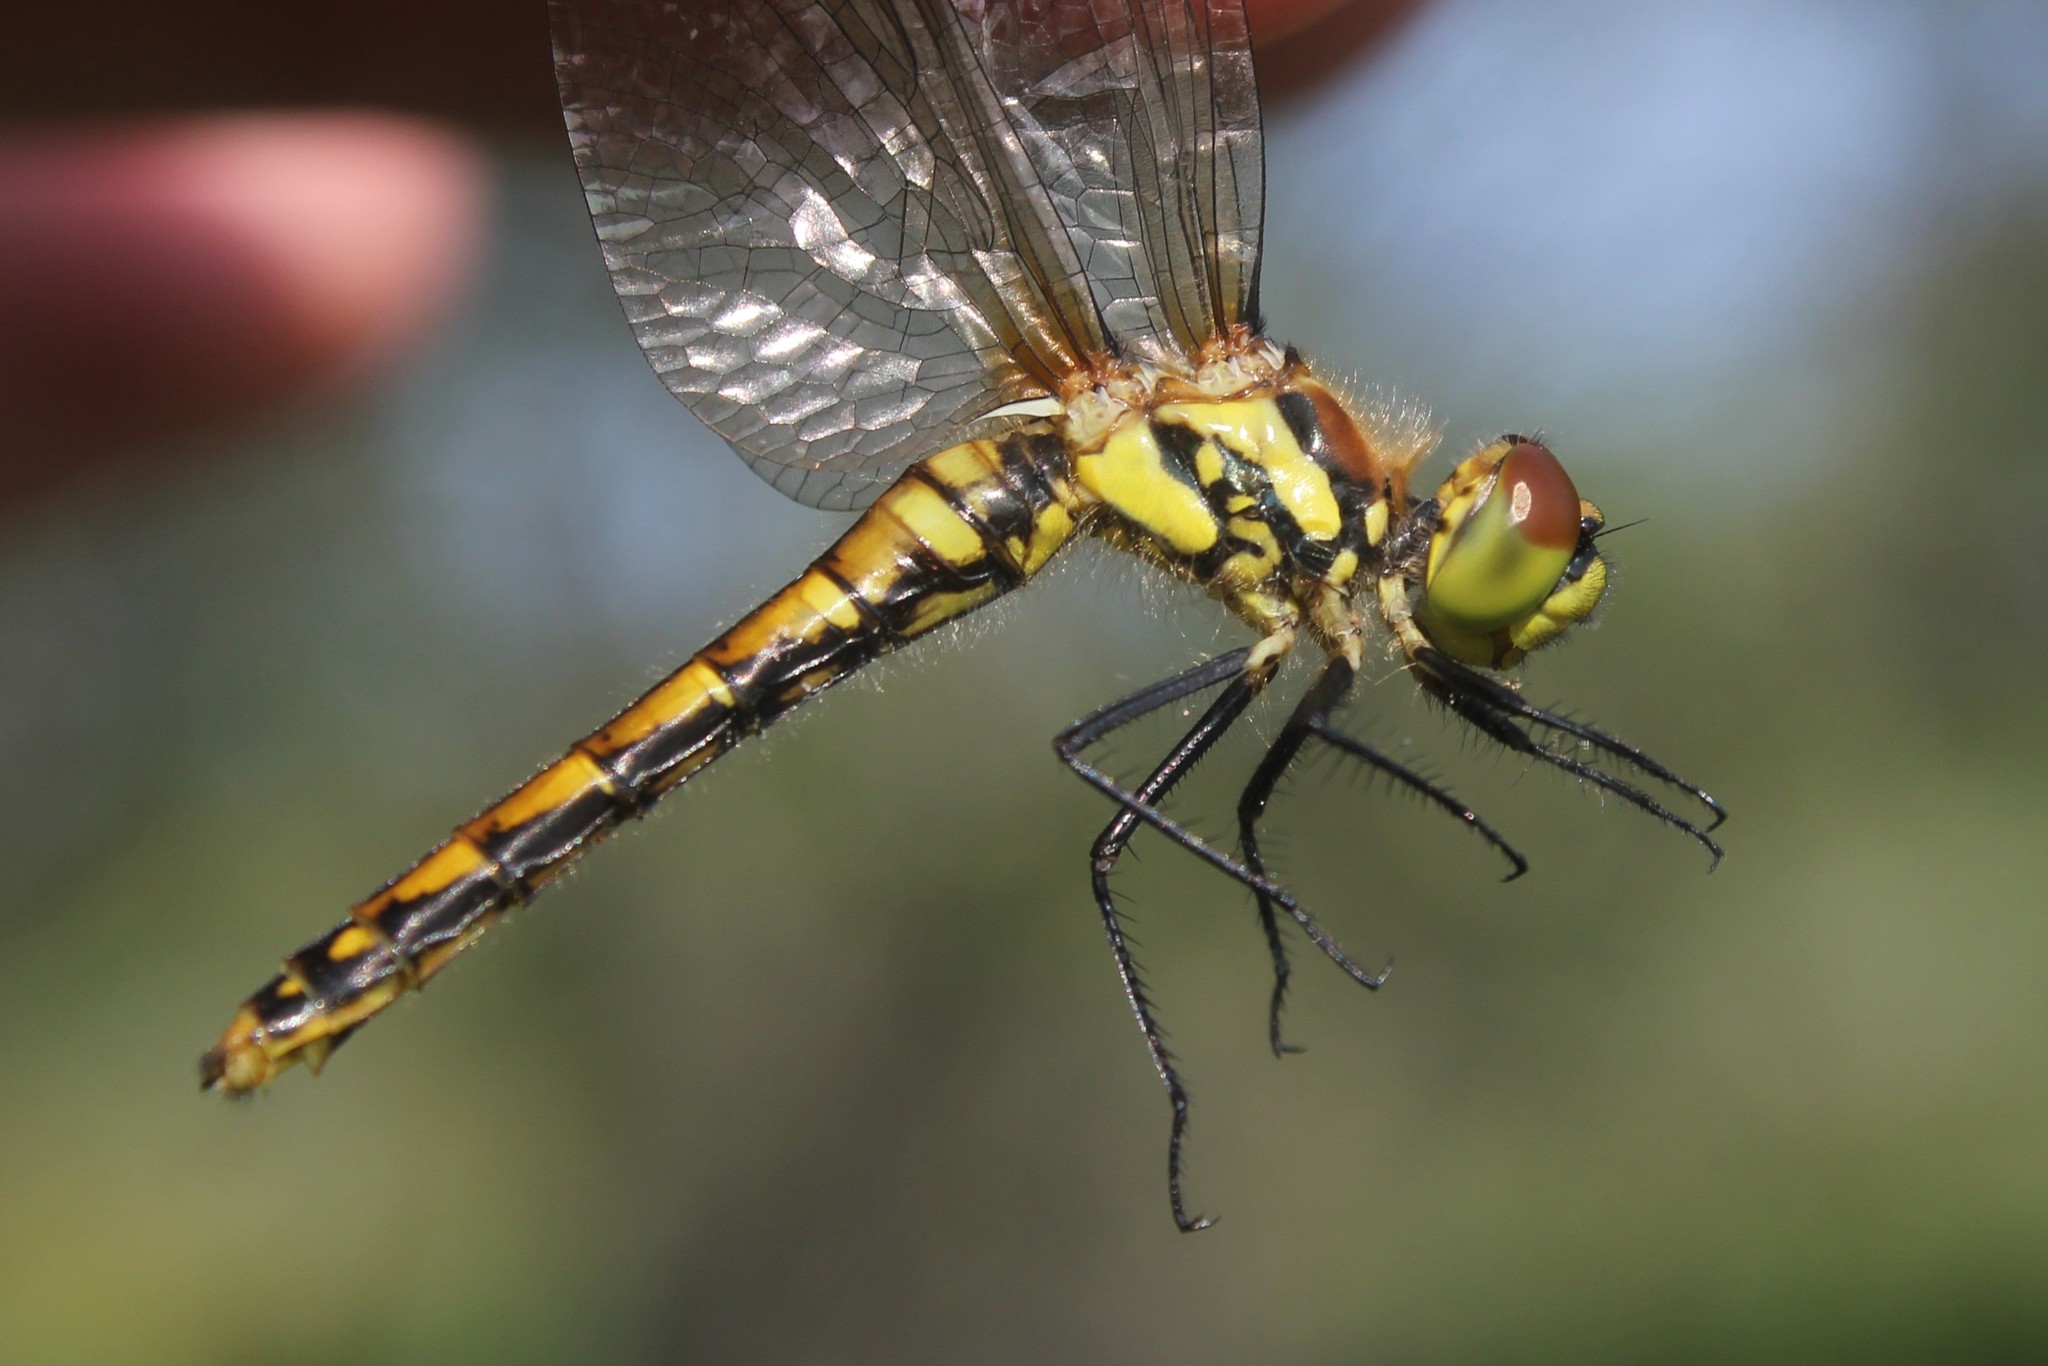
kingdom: Animalia
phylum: Arthropoda
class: Insecta
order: Odonata
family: Libellulidae
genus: Sympetrum
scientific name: Sympetrum danae
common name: Black darter
